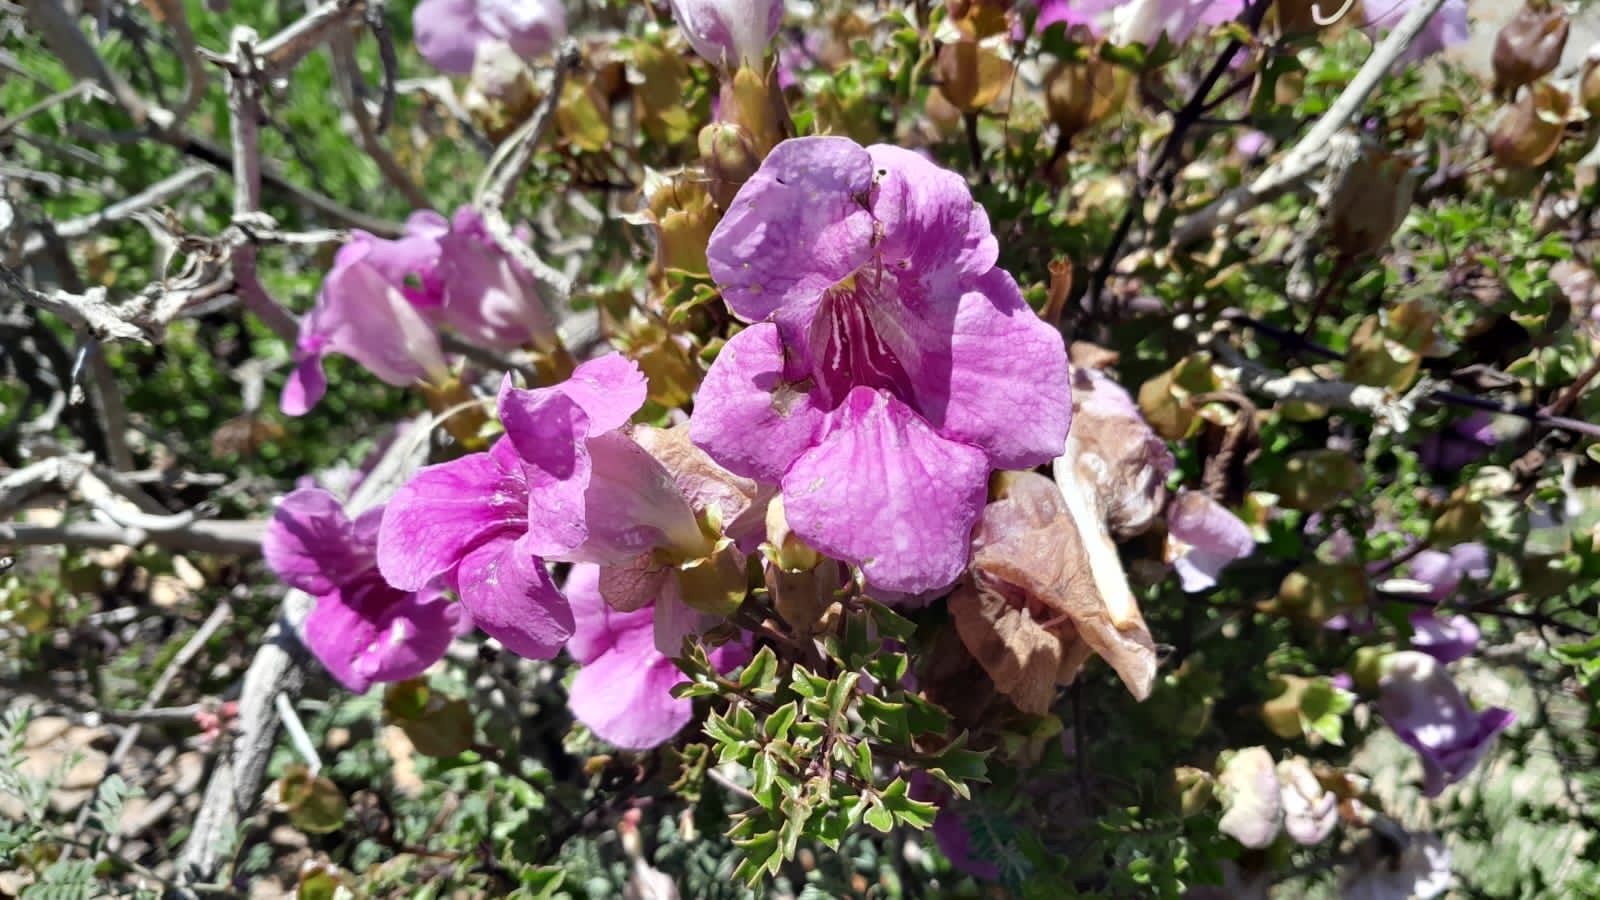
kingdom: Plantae
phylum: Tracheophyta
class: Magnoliopsida
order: Lamiales
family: Orobanchaceae
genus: Buttonia
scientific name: Buttonia superba
